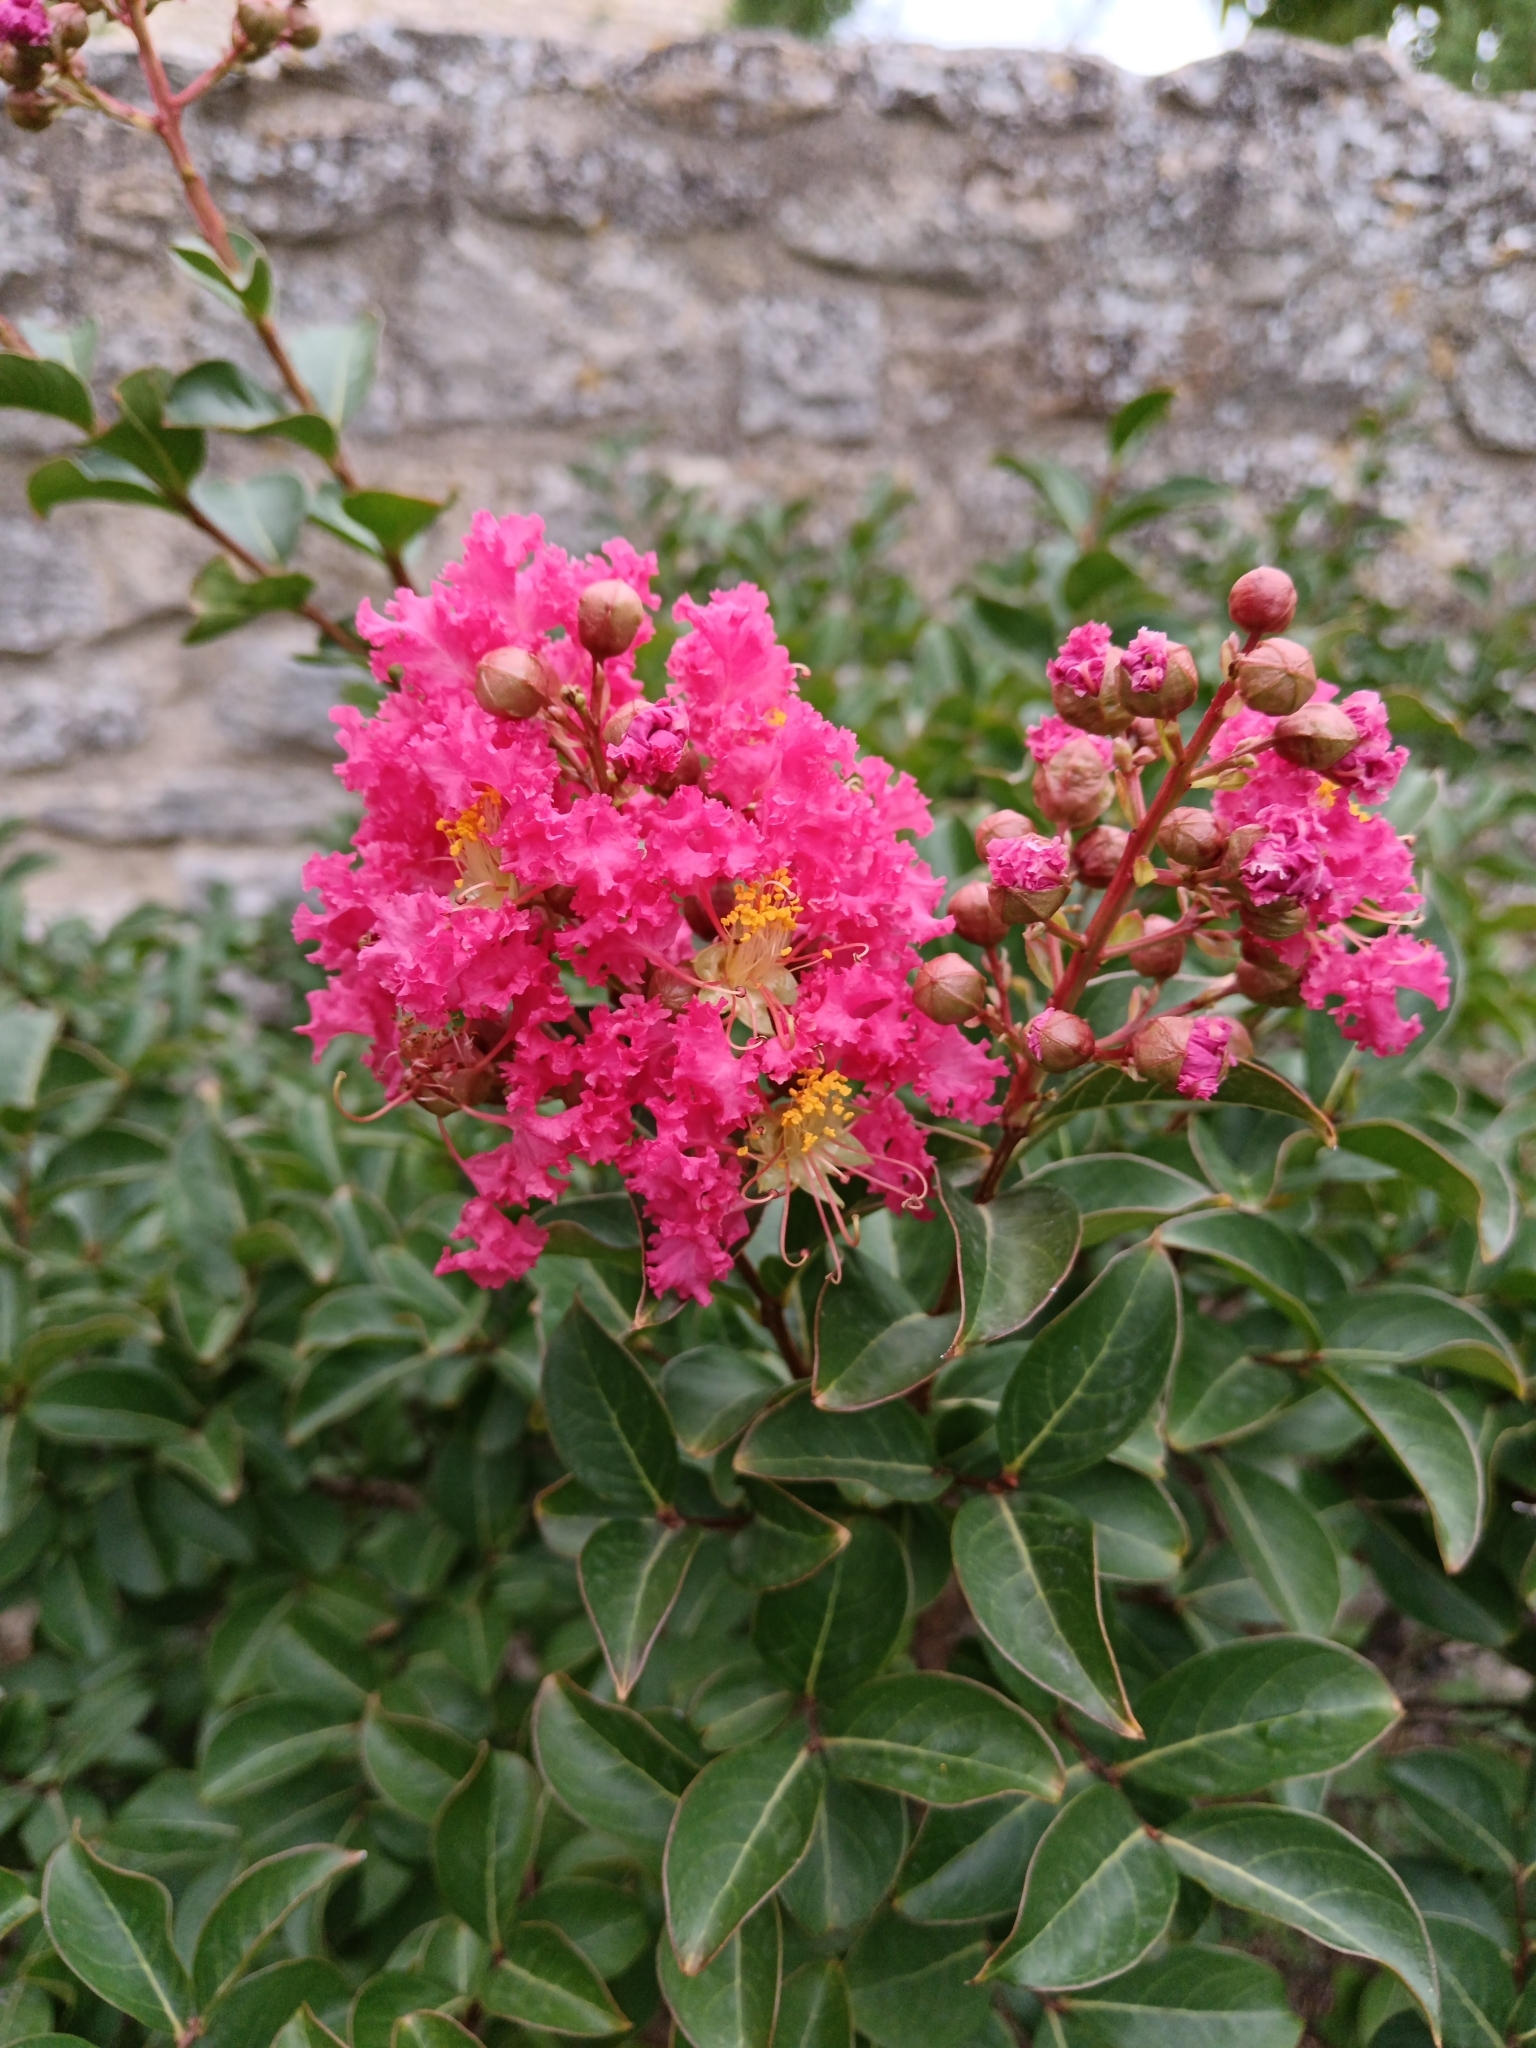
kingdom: Plantae
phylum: Tracheophyta
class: Magnoliopsida
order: Myrtales
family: Lythraceae
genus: Lagerstroemia
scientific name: Lagerstroemia indica
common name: Crape-myrtle
